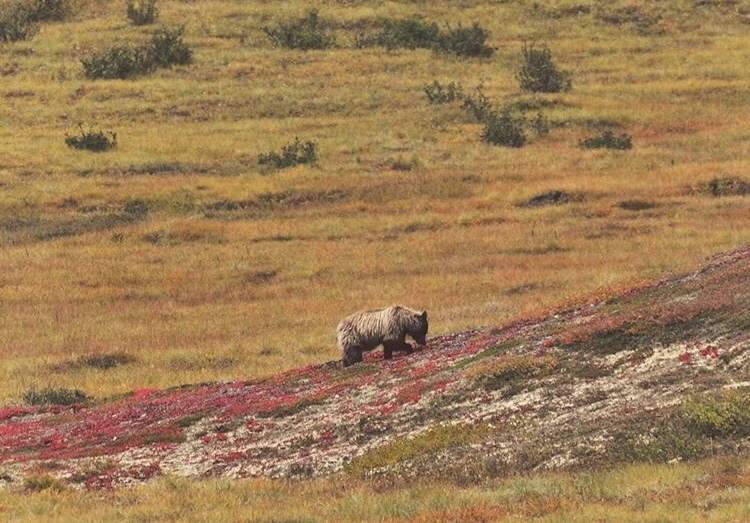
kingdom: Animalia
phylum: Chordata
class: Mammalia
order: Carnivora
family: Ursidae
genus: Ursus
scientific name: Ursus arctos
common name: Brown bear
